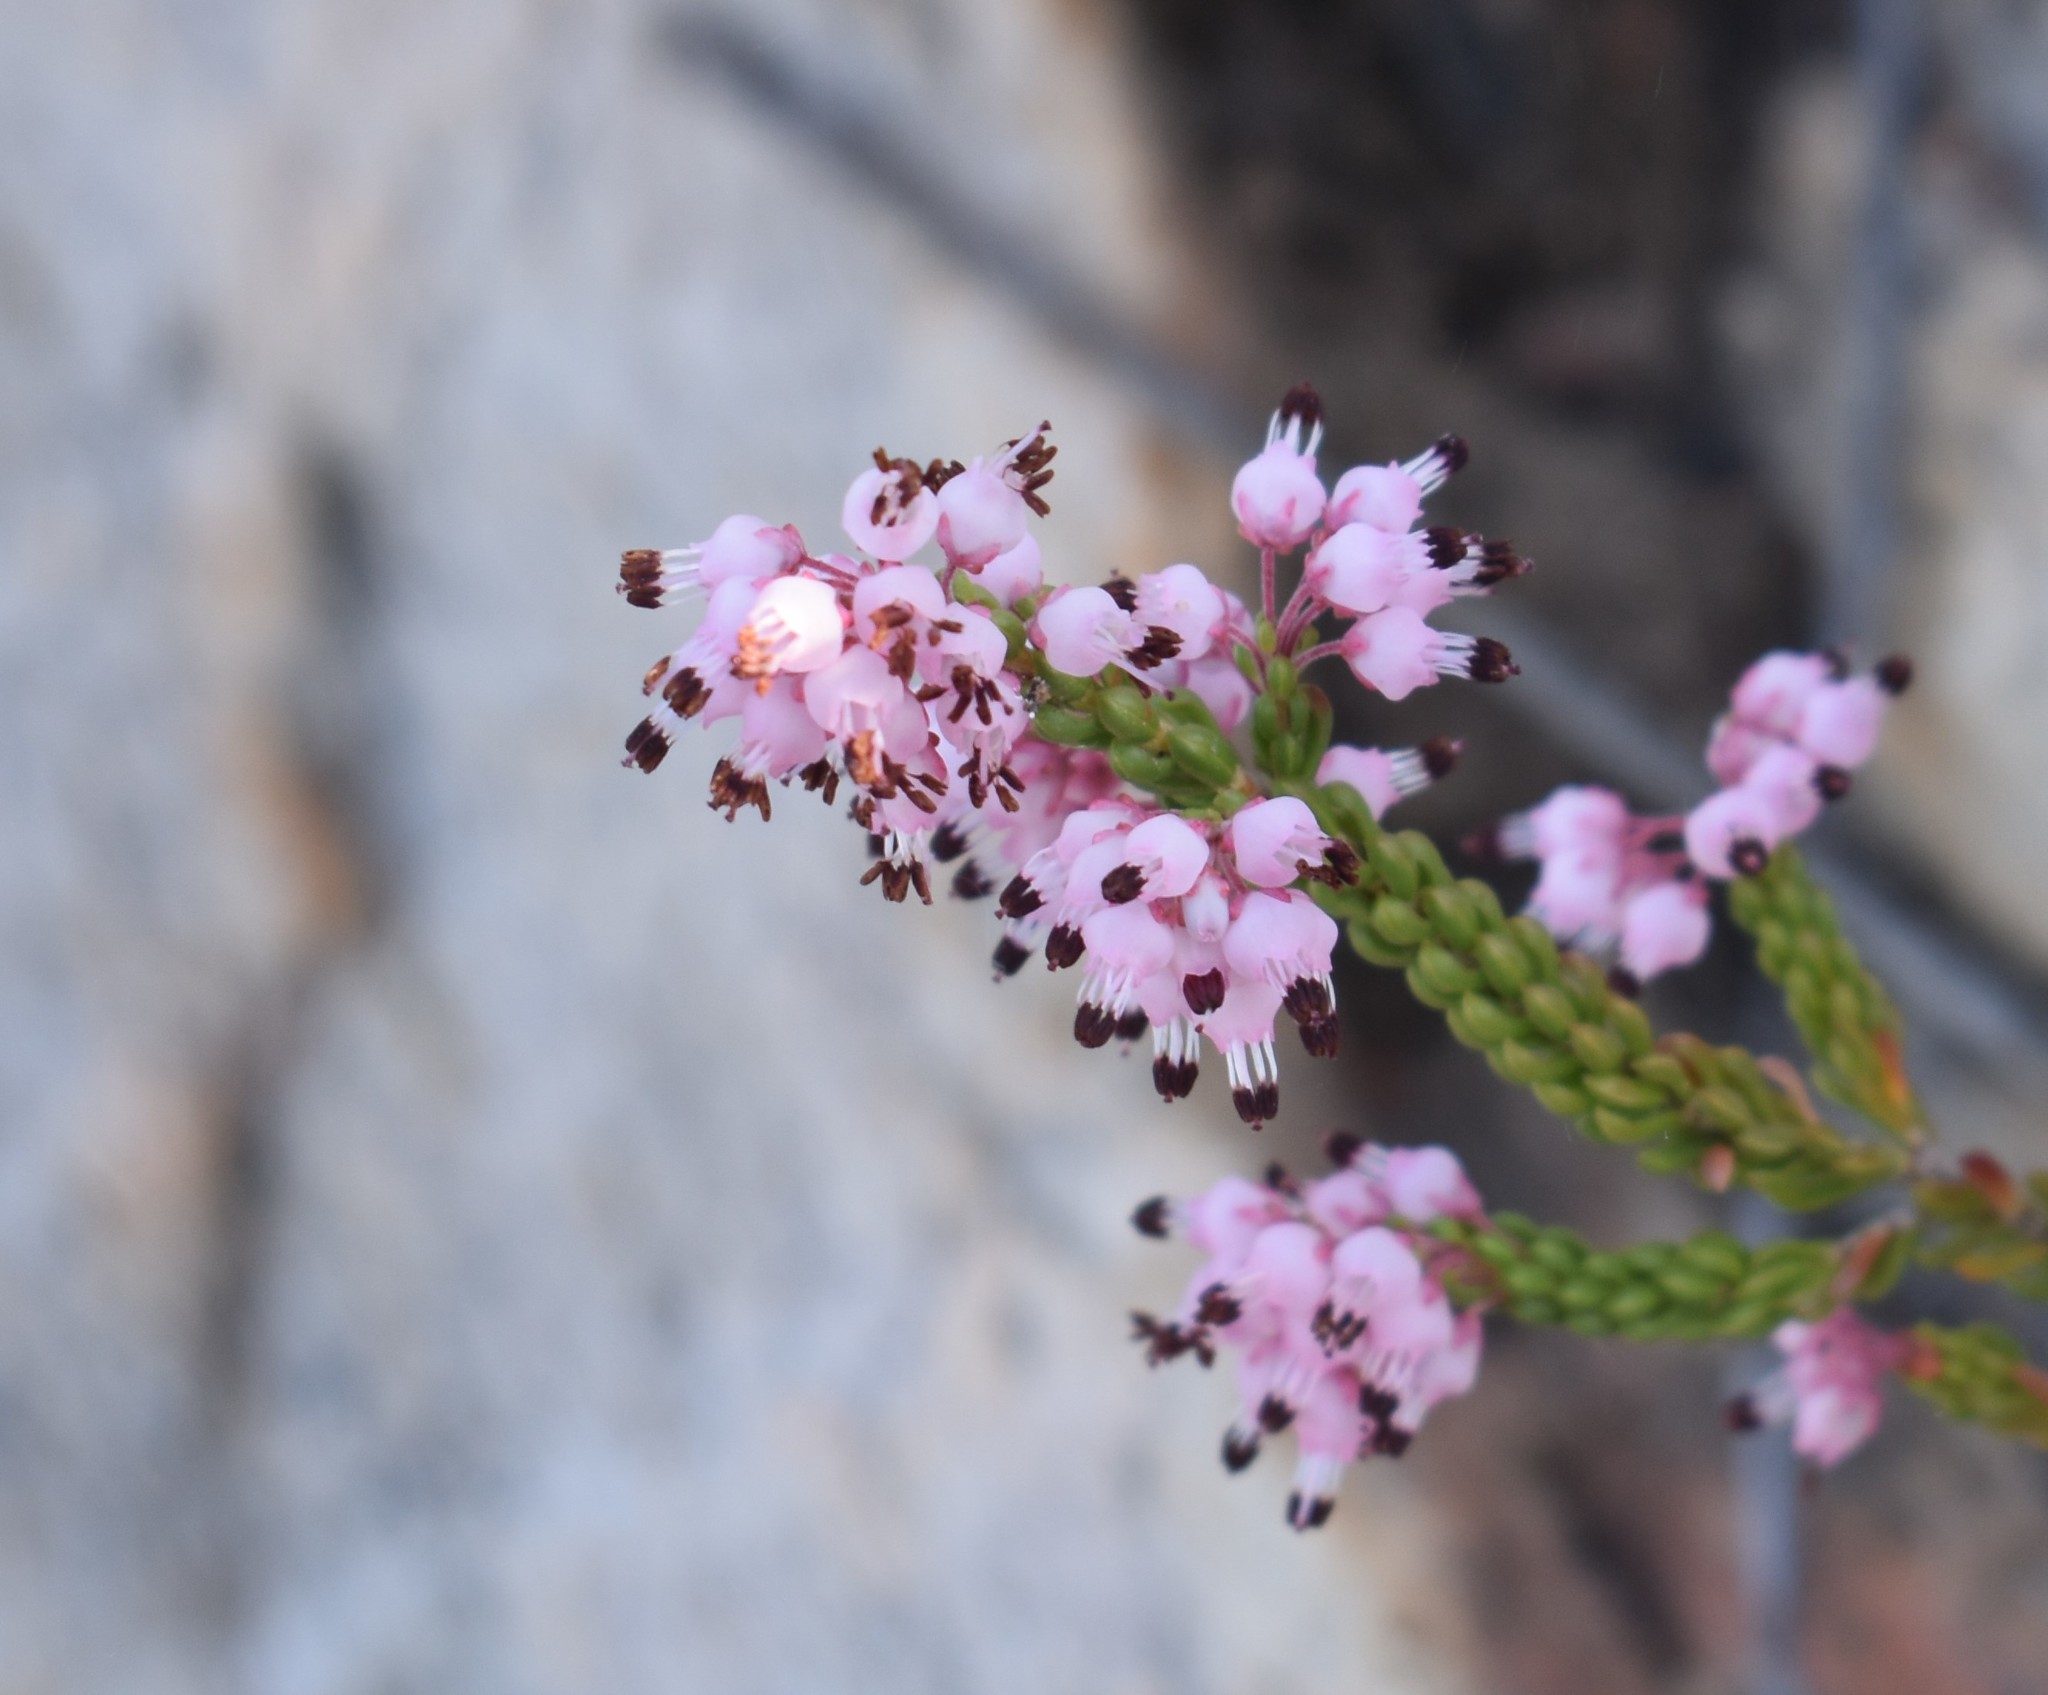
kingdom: Plantae
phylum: Tracheophyta
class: Magnoliopsida
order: Ericales
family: Ericaceae
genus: Erica
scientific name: Erica petraea
